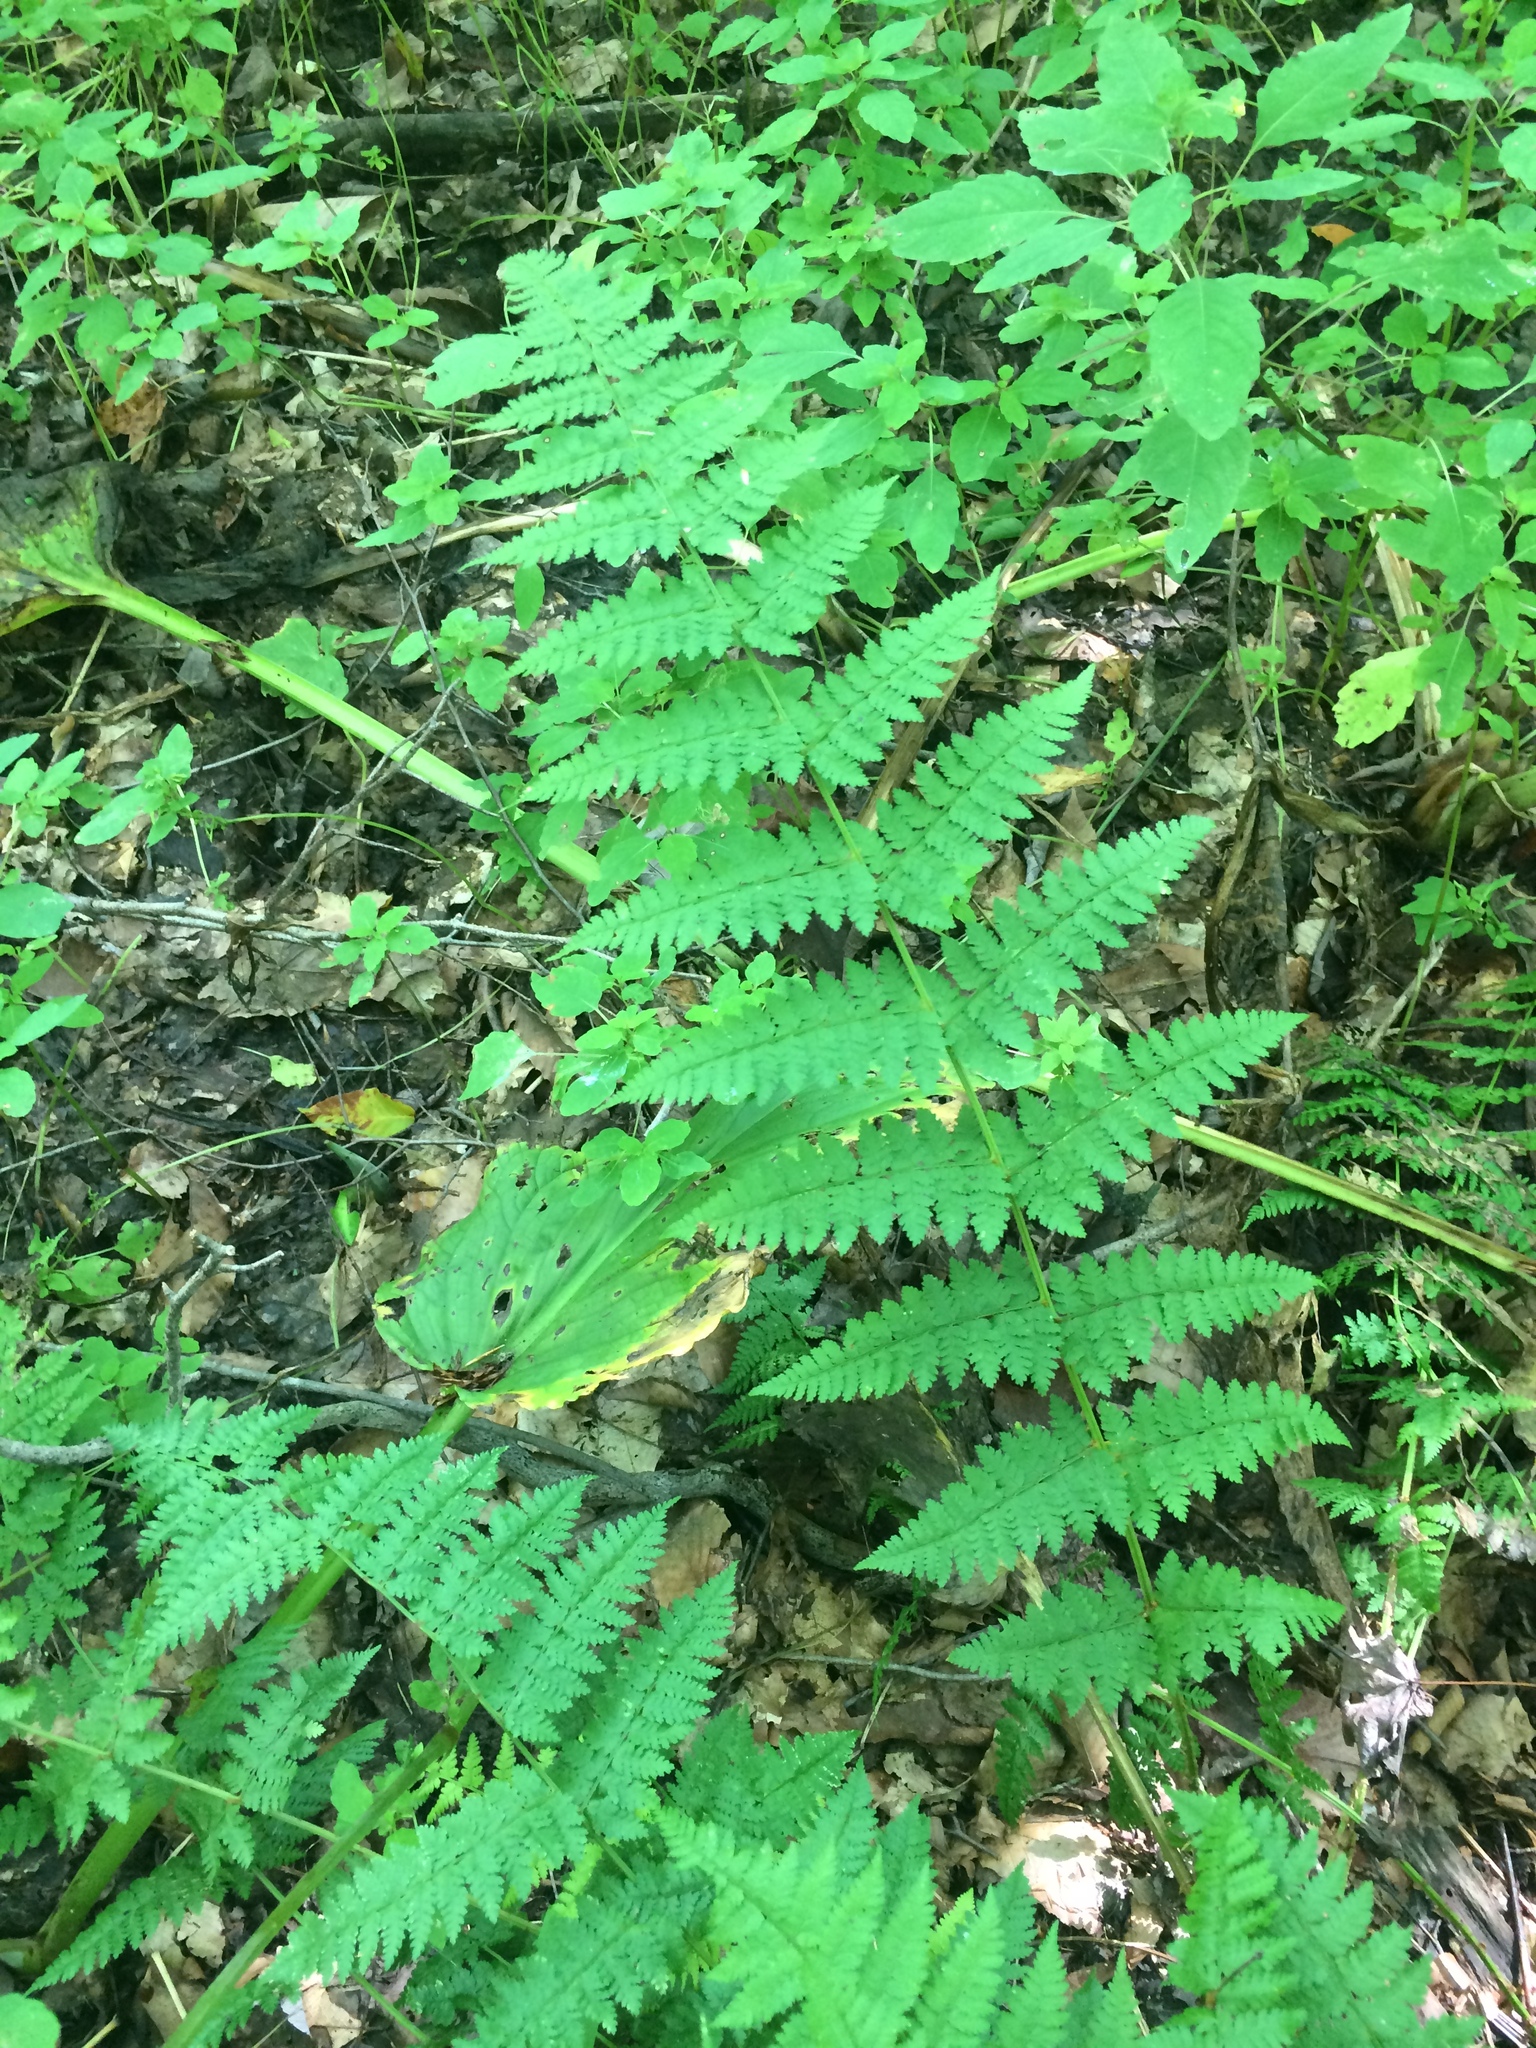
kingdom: Plantae
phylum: Tracheophyta
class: Polypodiopsida
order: Polypodiales
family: Dryopteridaceae
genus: Dryopteris
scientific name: Dryopteris intermedia
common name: Evergreen wood fern
